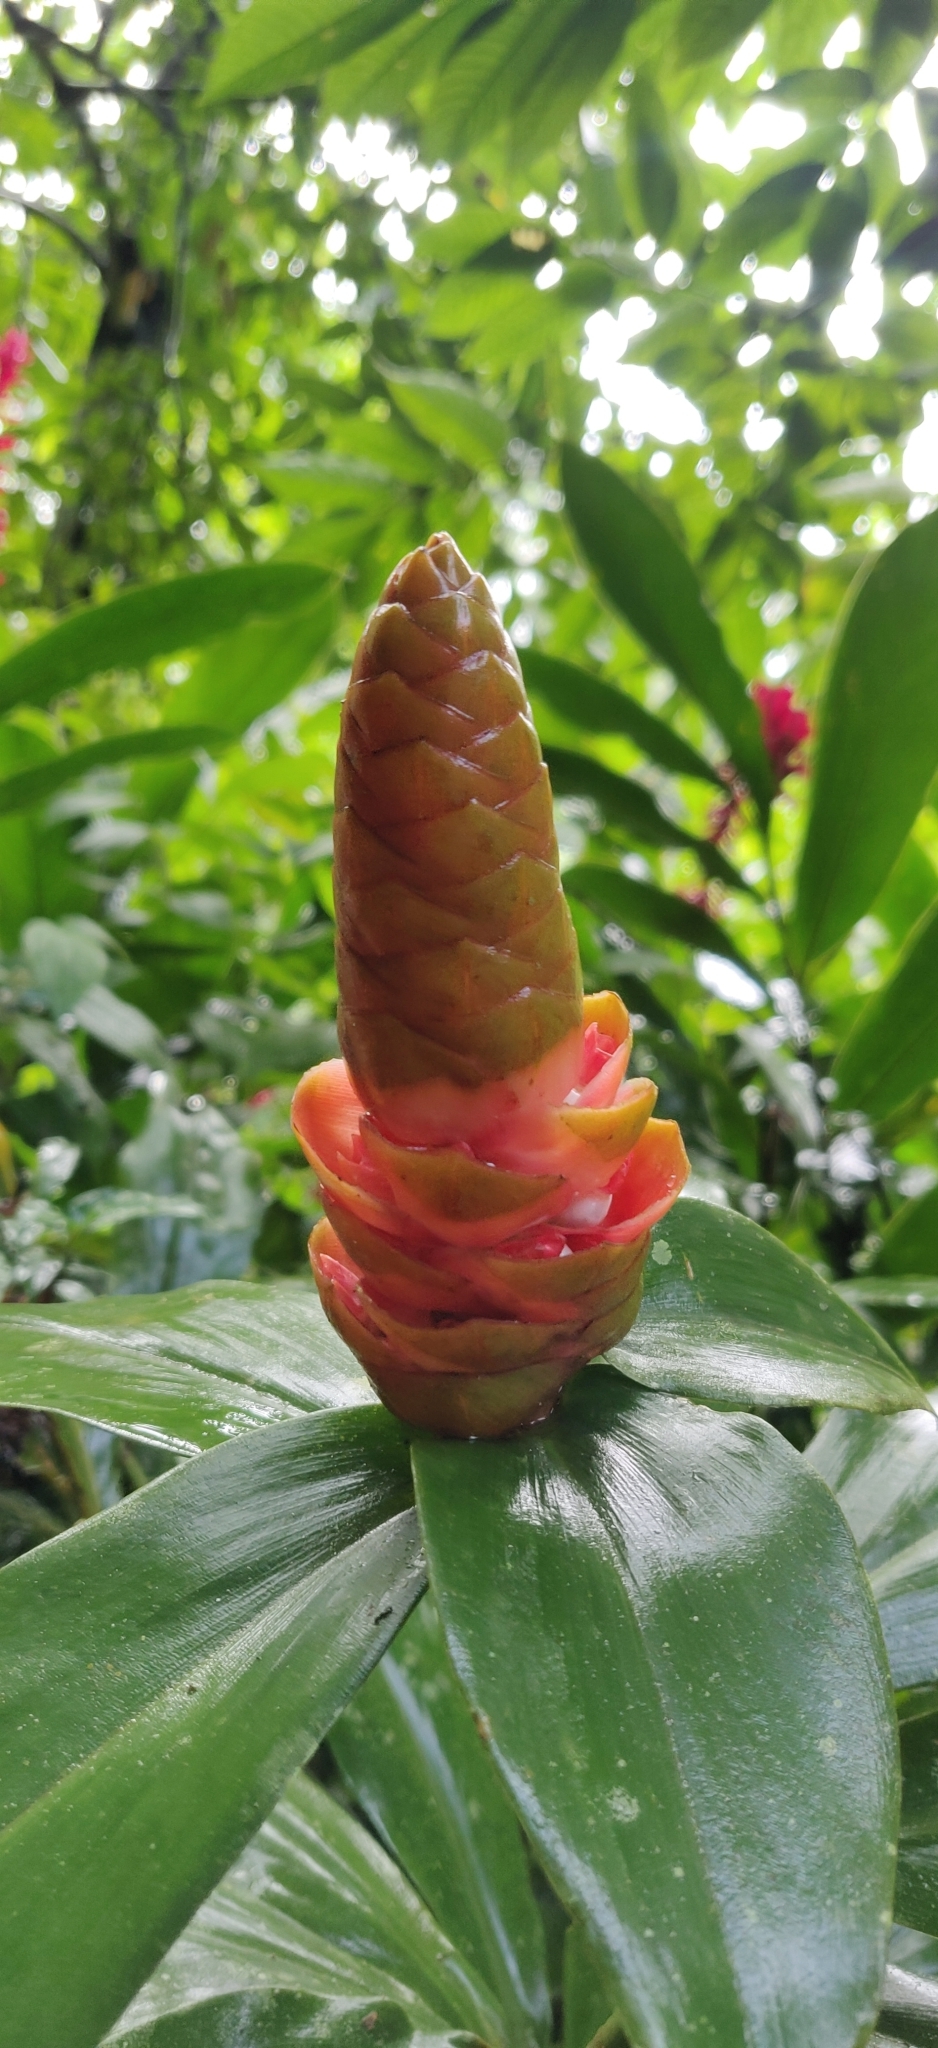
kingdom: Plantae
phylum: Tracheophyta
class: Liliopsida
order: Zingiberales
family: Zingiberaceae
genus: Alpinia
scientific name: Alpinia purpurata
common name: Red ginger
